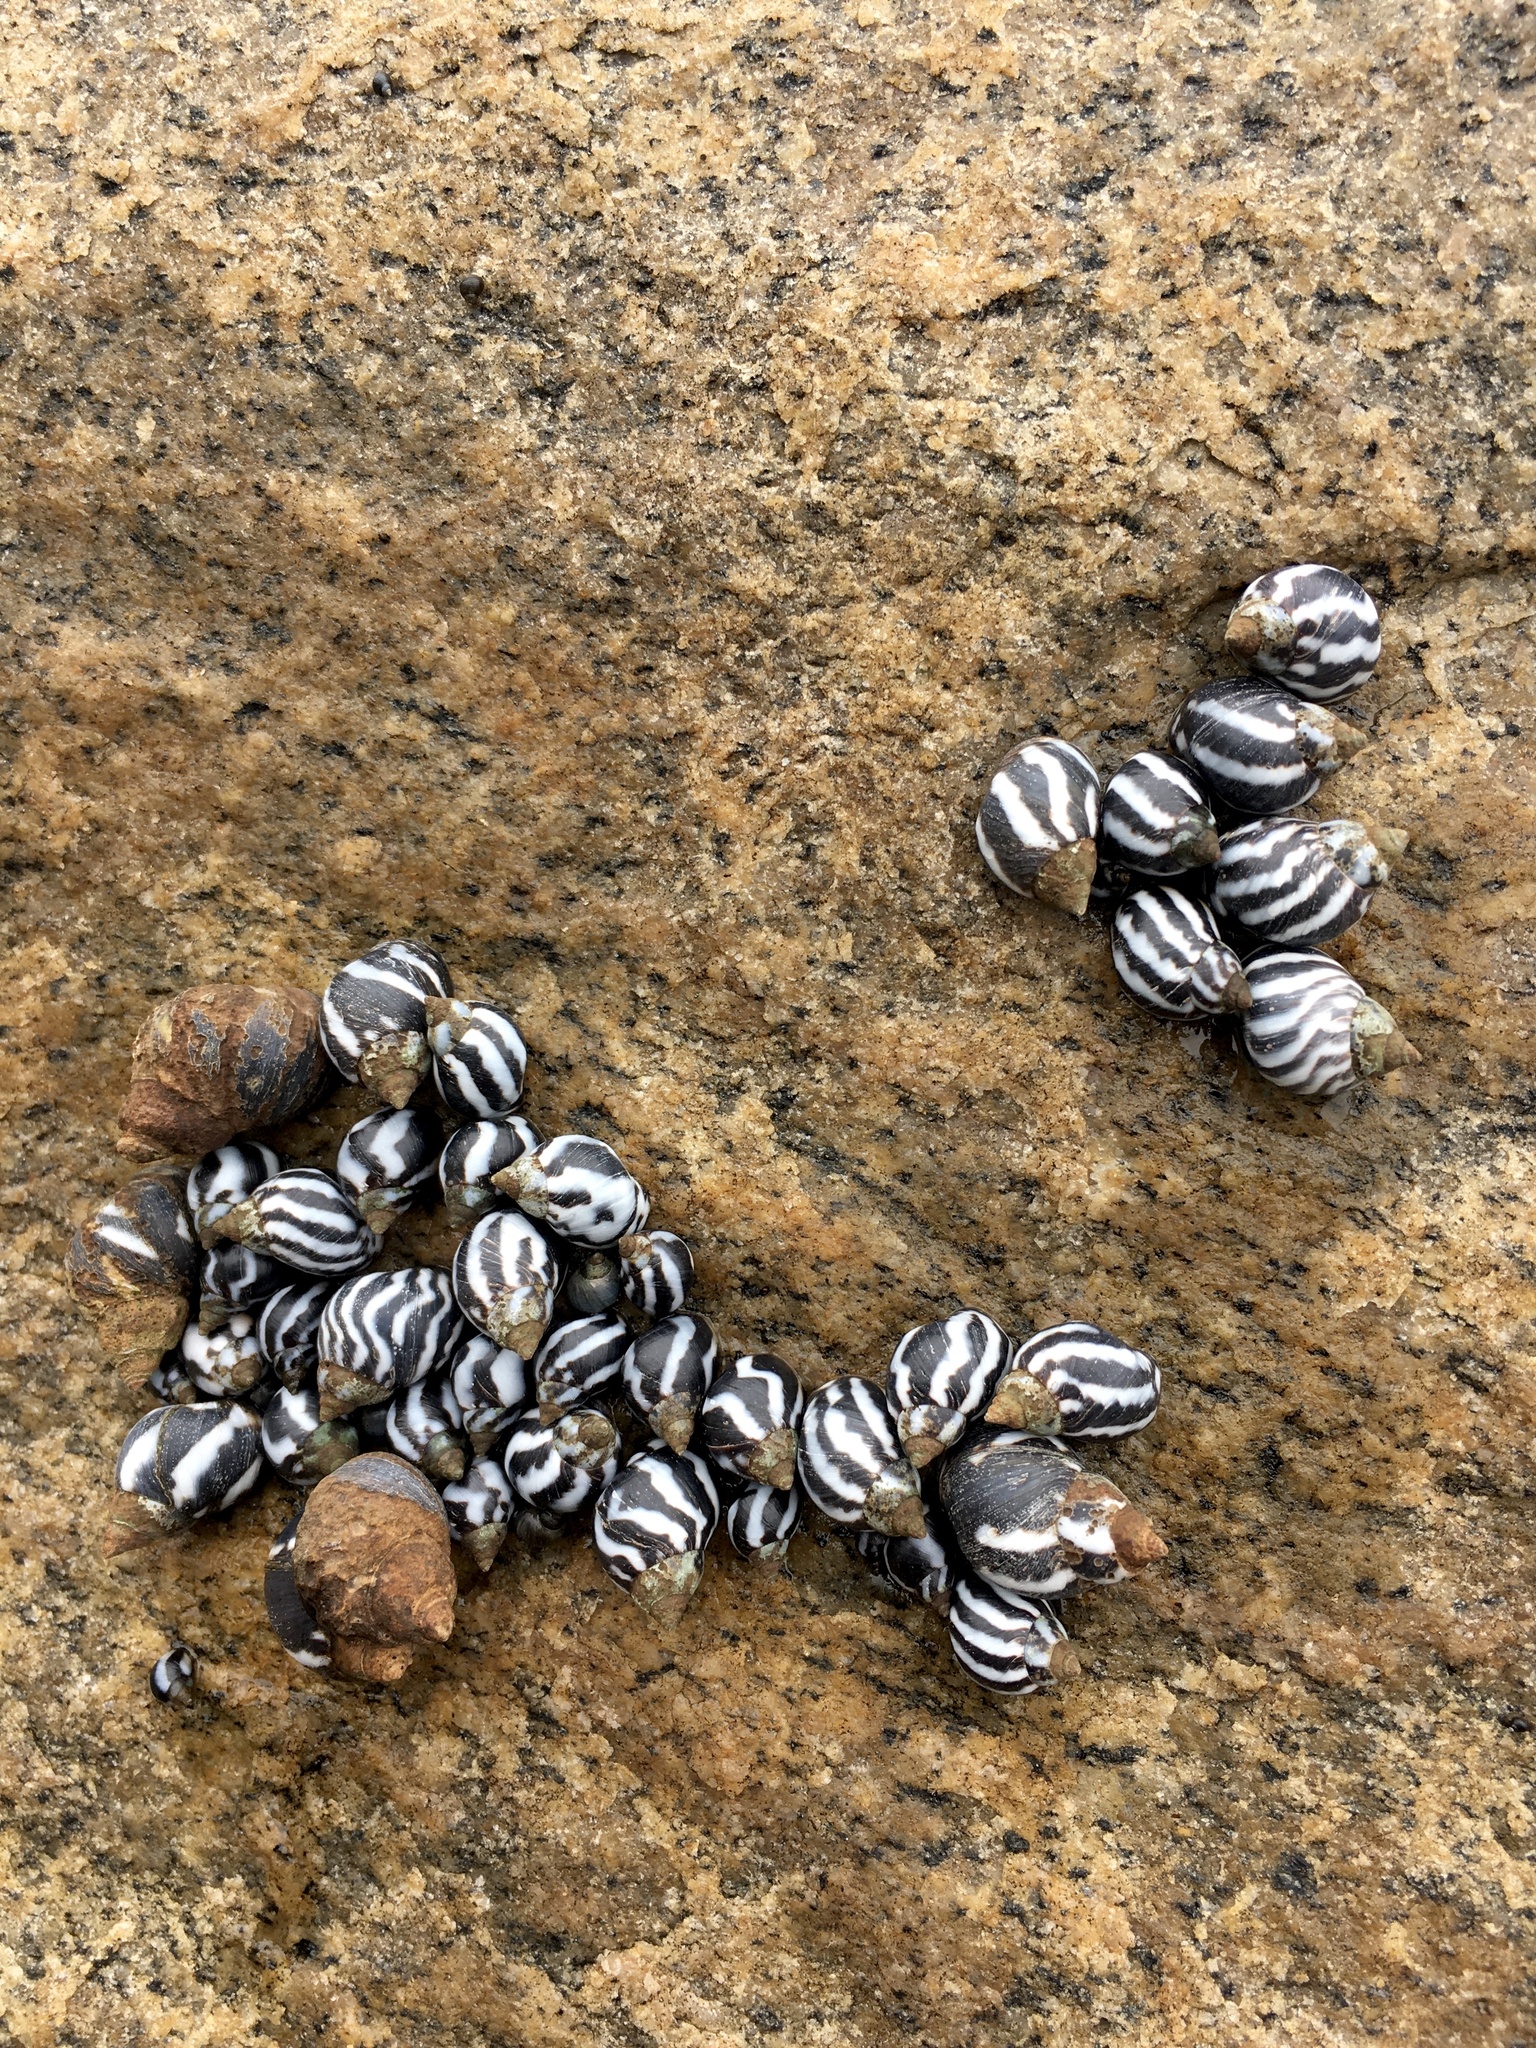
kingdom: Animalia
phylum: Mollusca
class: Gastropoda
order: Littorinimorpha
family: Littorinidae
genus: Echinolittorina
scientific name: Echinolittorina peruviana
